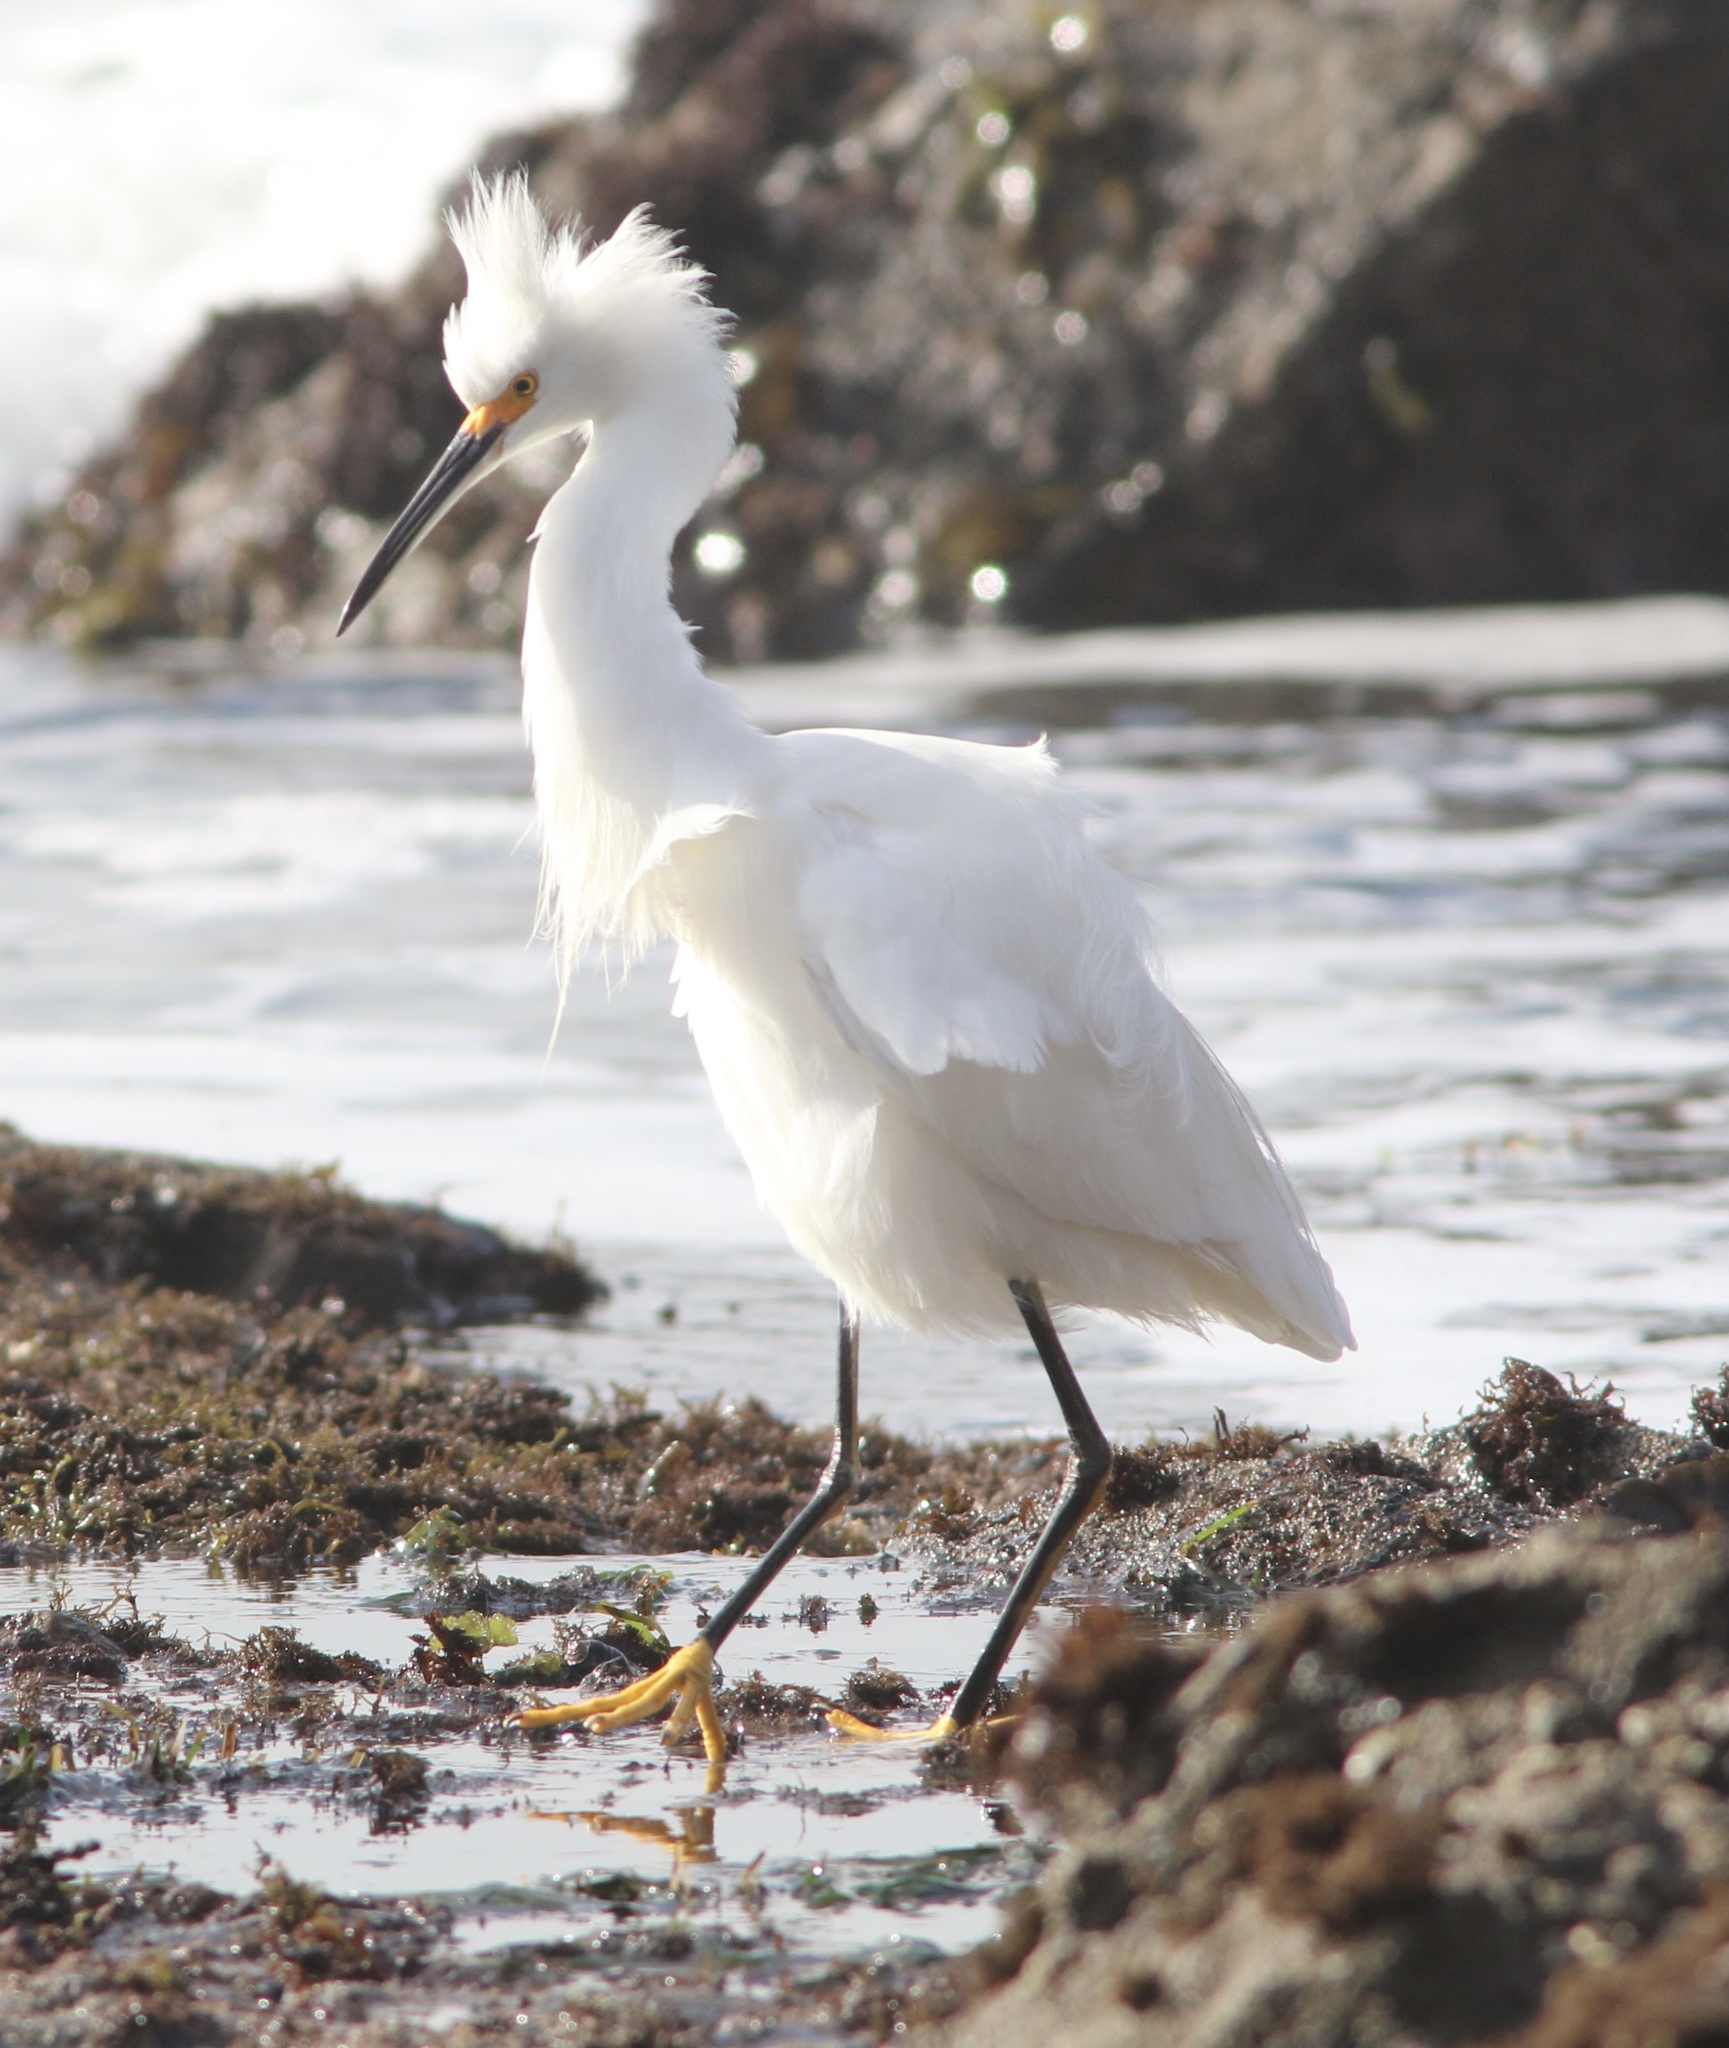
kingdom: Animalia
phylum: Chordata
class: Aves
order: Pelecaniformes
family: Ardeidae
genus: Egretta
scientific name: Egretta thula
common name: Snowy egret
